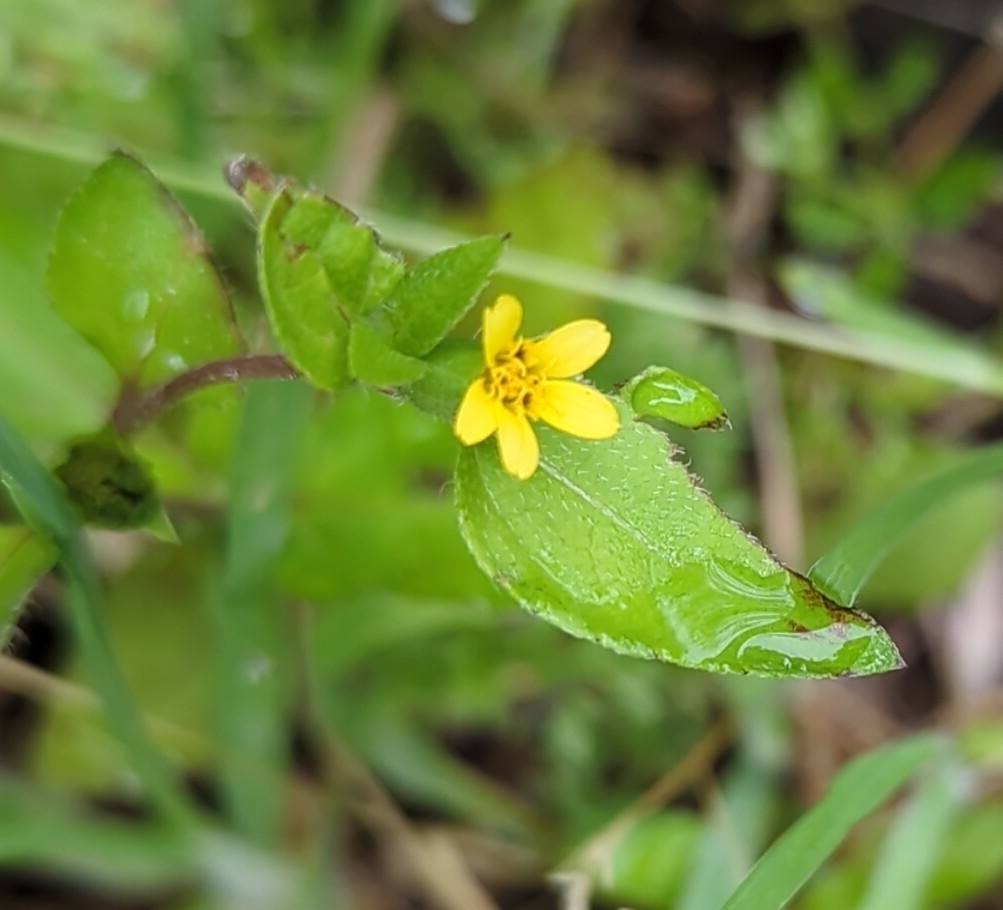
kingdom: Plantae
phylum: Tracheophyta
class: Magnoliopsida
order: Asterales
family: Asteraceae
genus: Calyptocarpus
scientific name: Calyptocarpus vialis
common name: Straggler daisy
